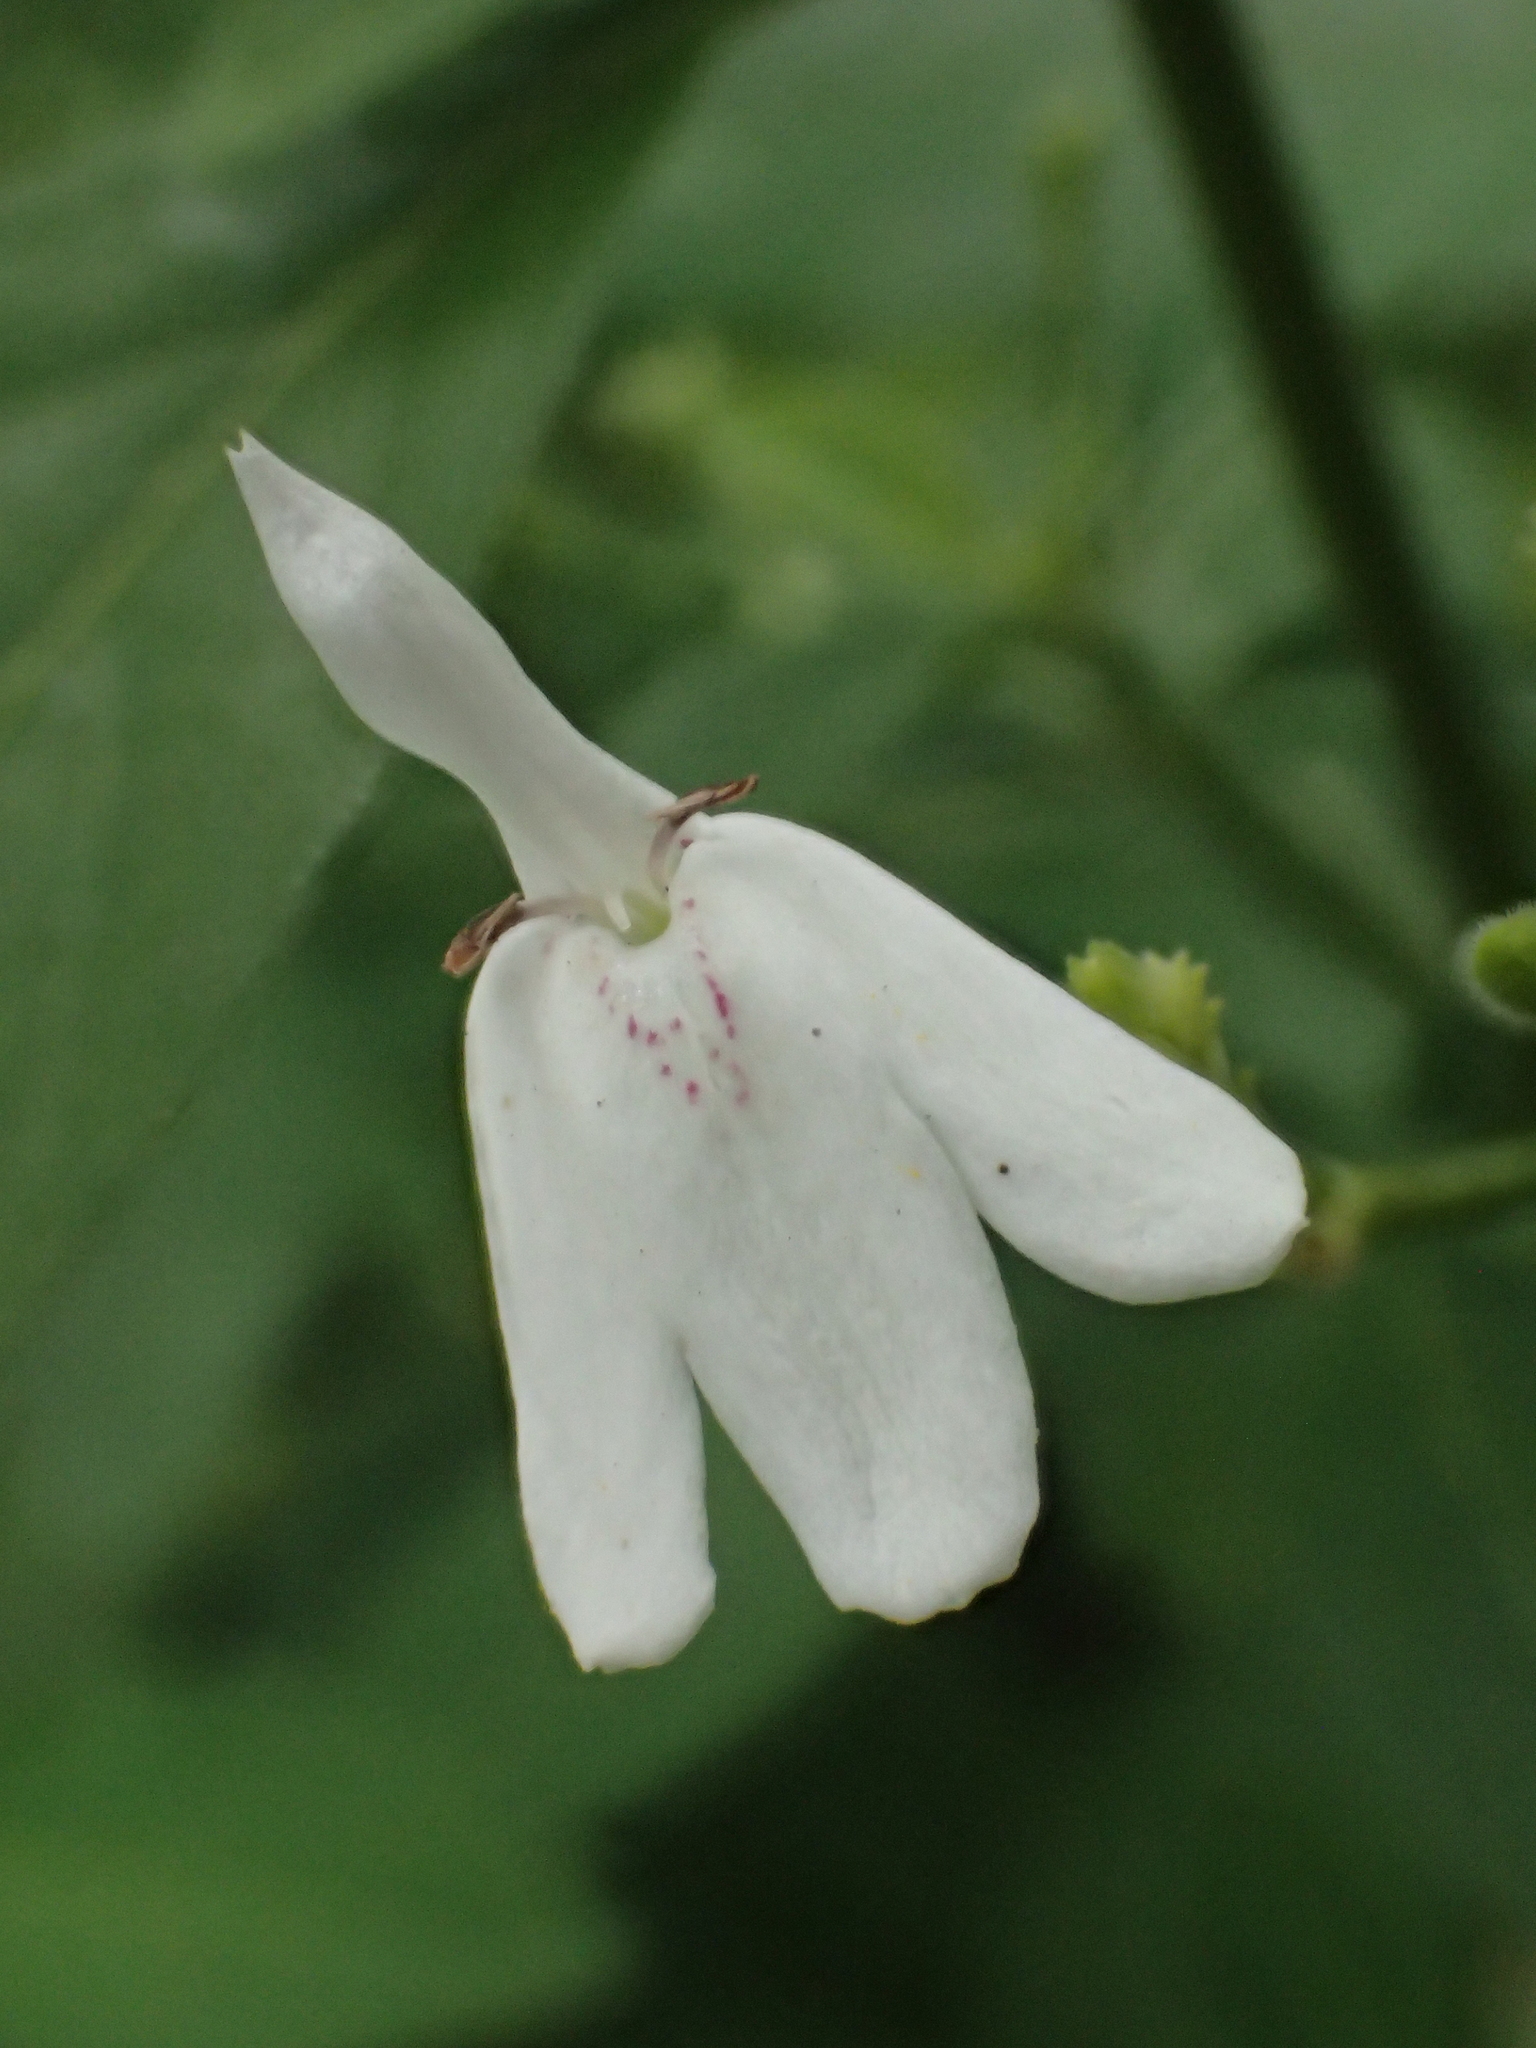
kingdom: Plantae
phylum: Tracheophyta
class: Magnoliopsida
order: Lamiales
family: Acanthaceae
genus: Rhinacanthus
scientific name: Rhinacanthus nasutus
